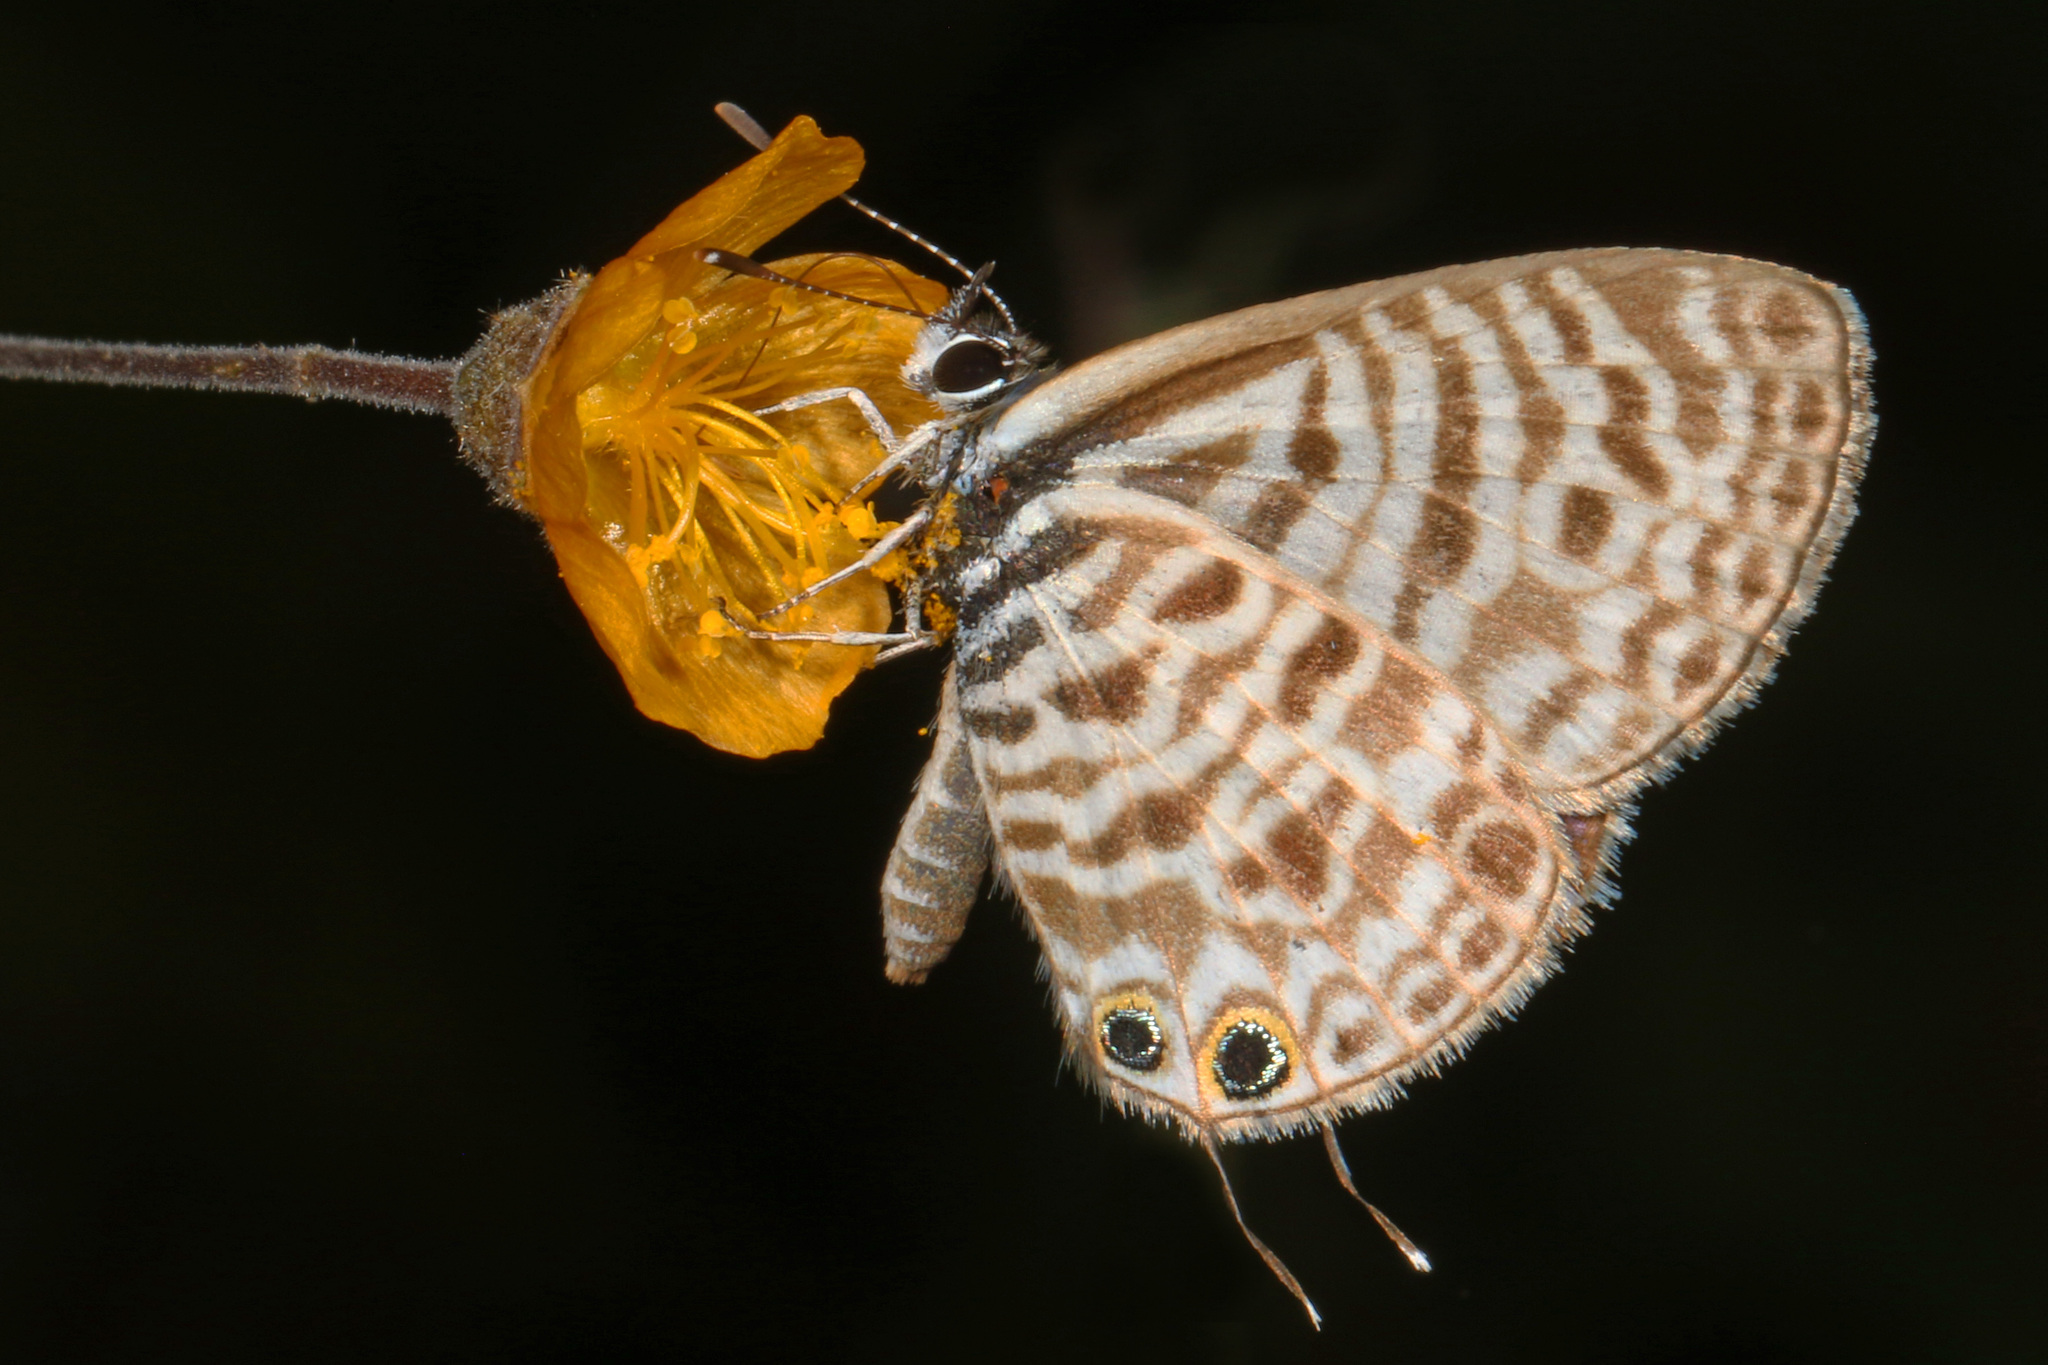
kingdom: Animalia
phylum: Arthropoda
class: Insecta
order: Lepidoptera
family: Lycaenidae
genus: Leptotes
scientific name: Leptotes
